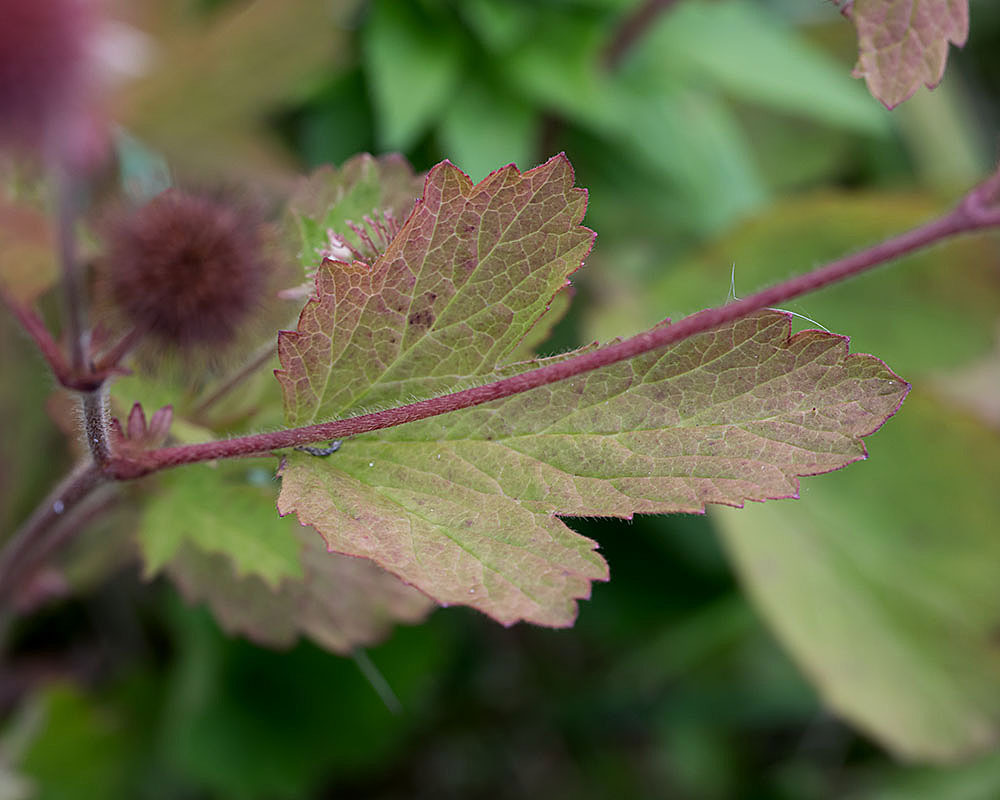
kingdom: Plantae
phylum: Tracheophyta
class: Magnoliopsida
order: Rosales
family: Rosaceae
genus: Geum
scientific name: Geum laciniatum
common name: Rough avens
